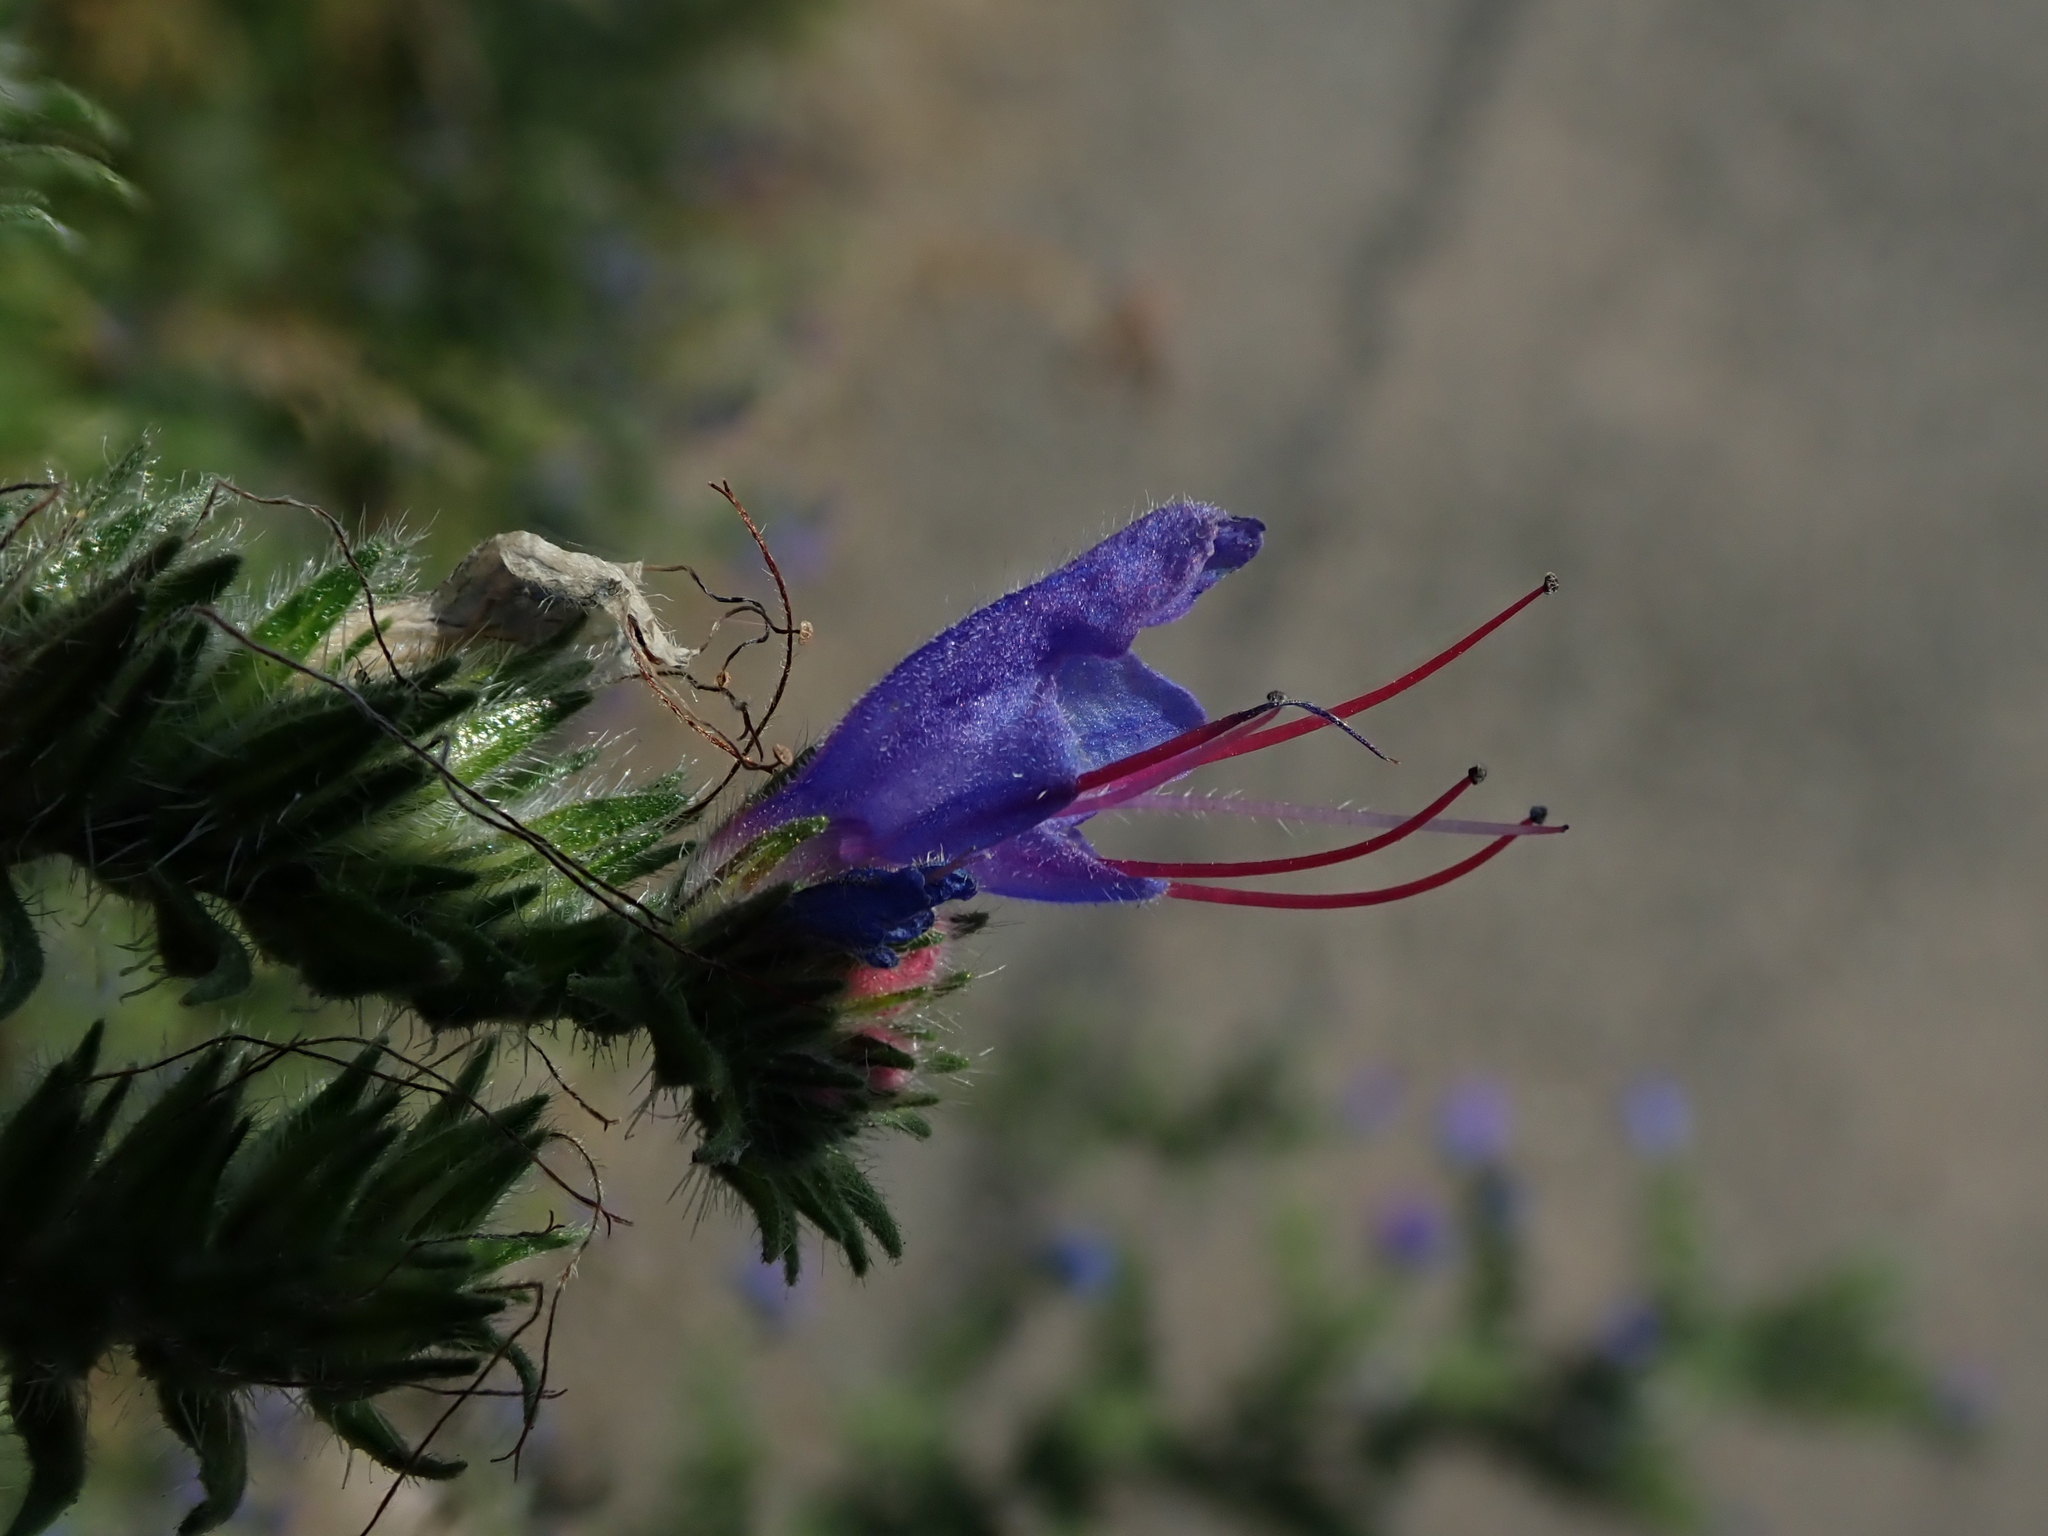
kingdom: Plantae
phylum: Tracheophyta
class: Magnoliopsida
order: Boraginales
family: Boraginaceae
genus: Echium
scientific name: Echium vulgare
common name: Common viper's bugloss
